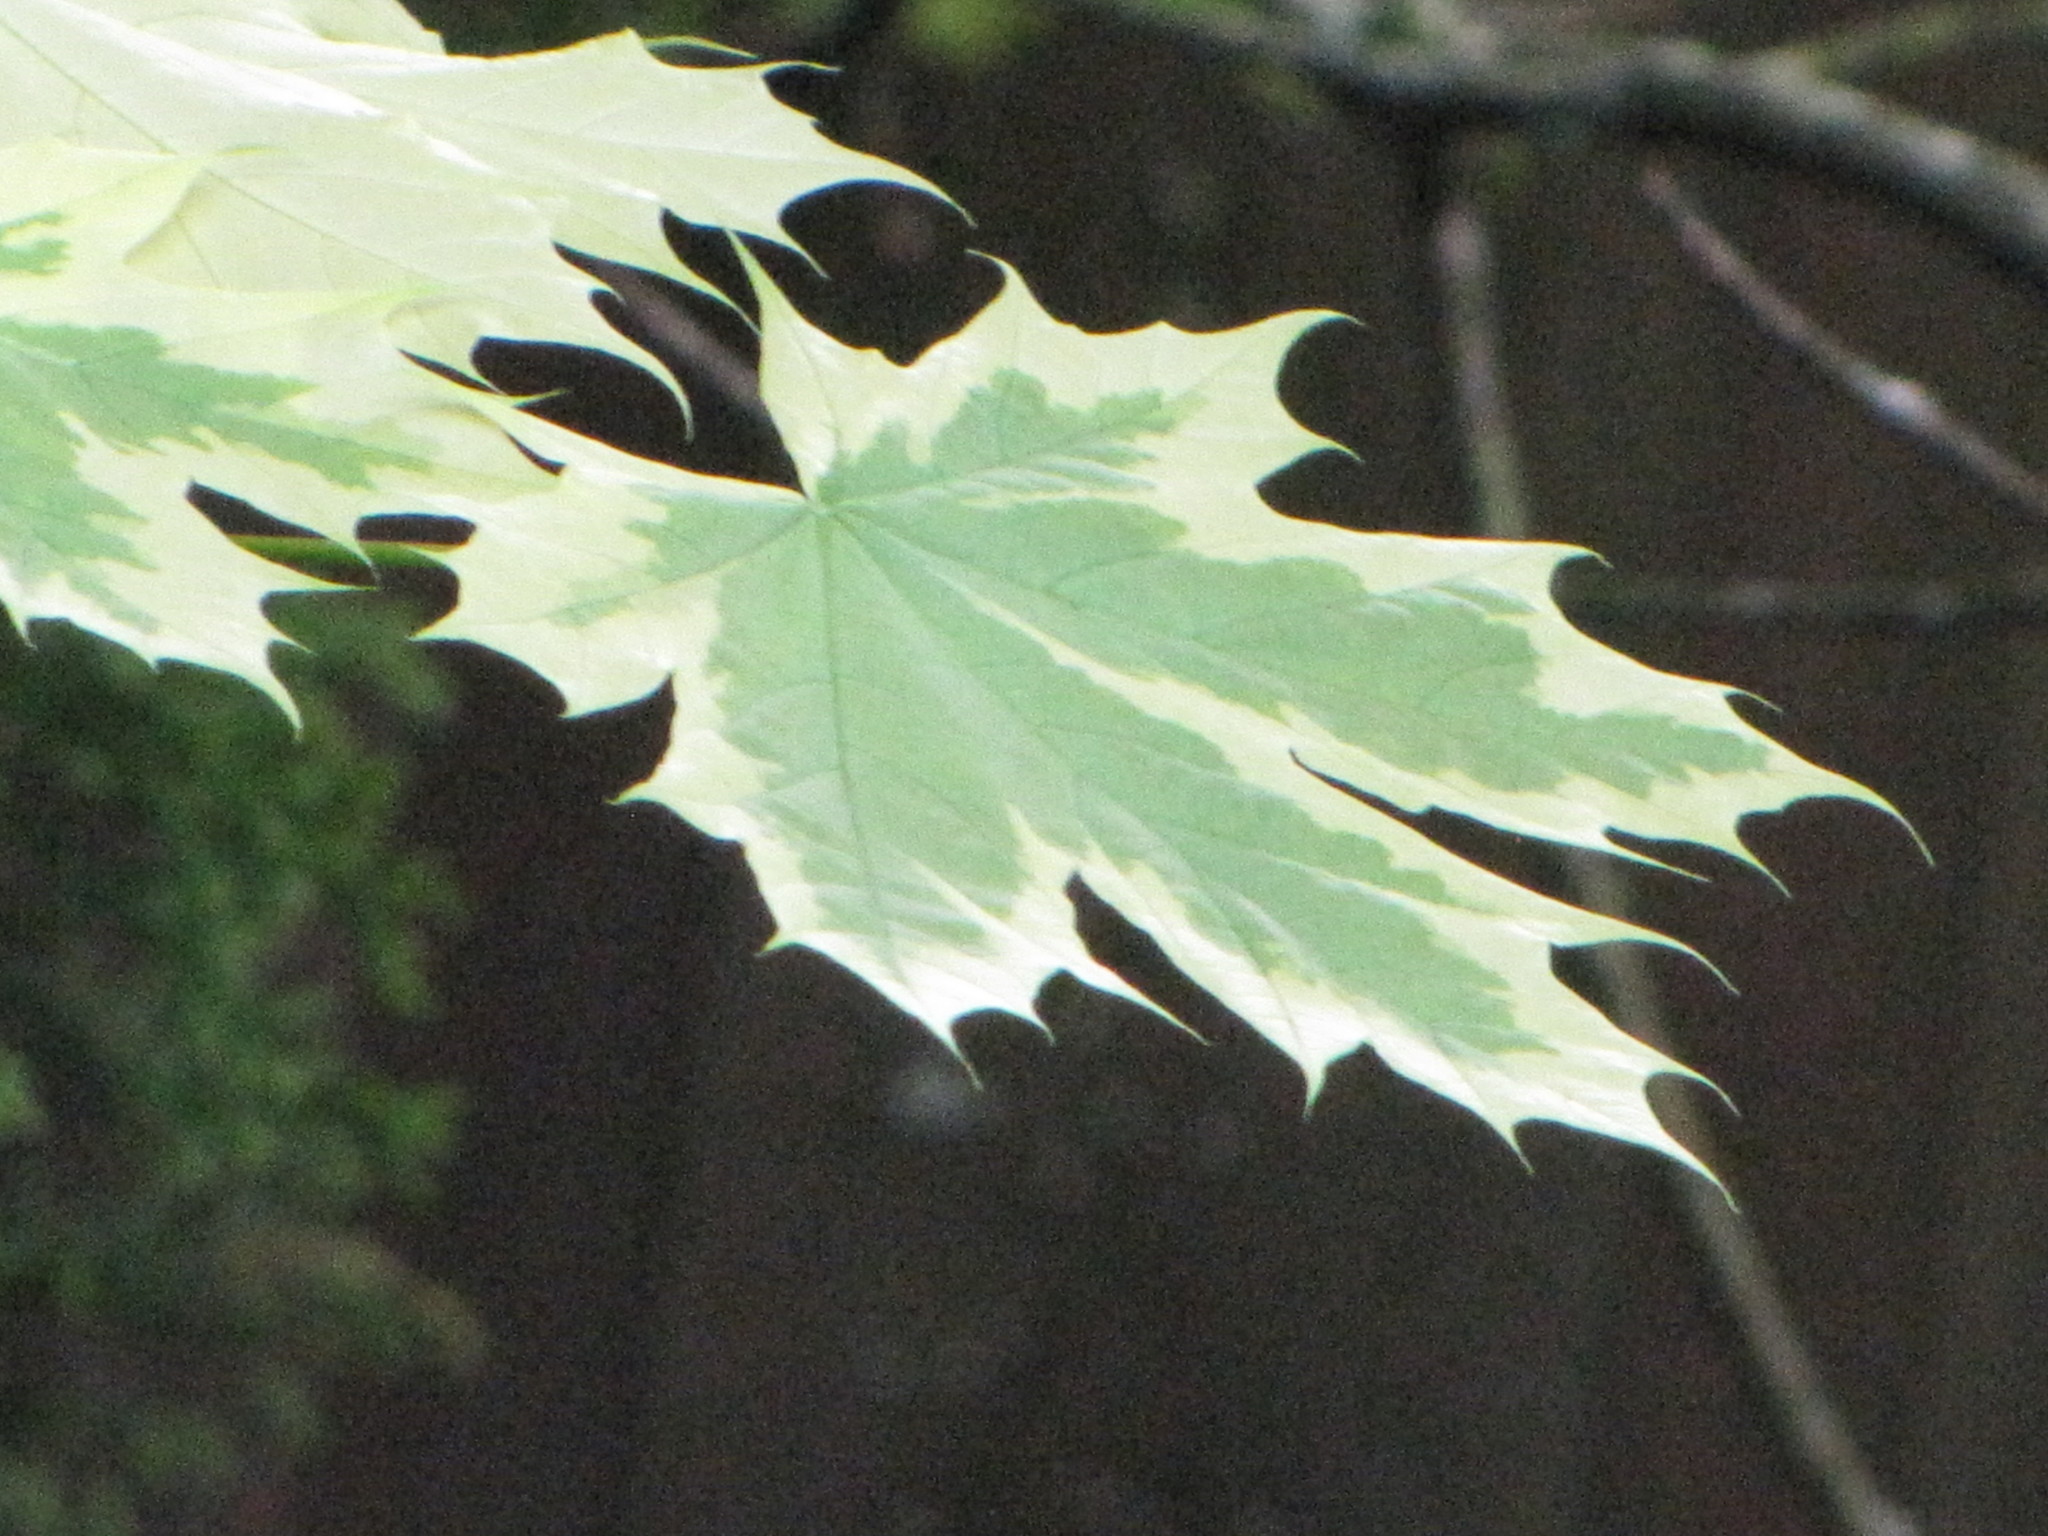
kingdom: Plantae
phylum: Tracheophyta
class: Magnoliopsida
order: Sapindales
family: Sapindaceae
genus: Acer
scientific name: Acer platanoides
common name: Norway maple
